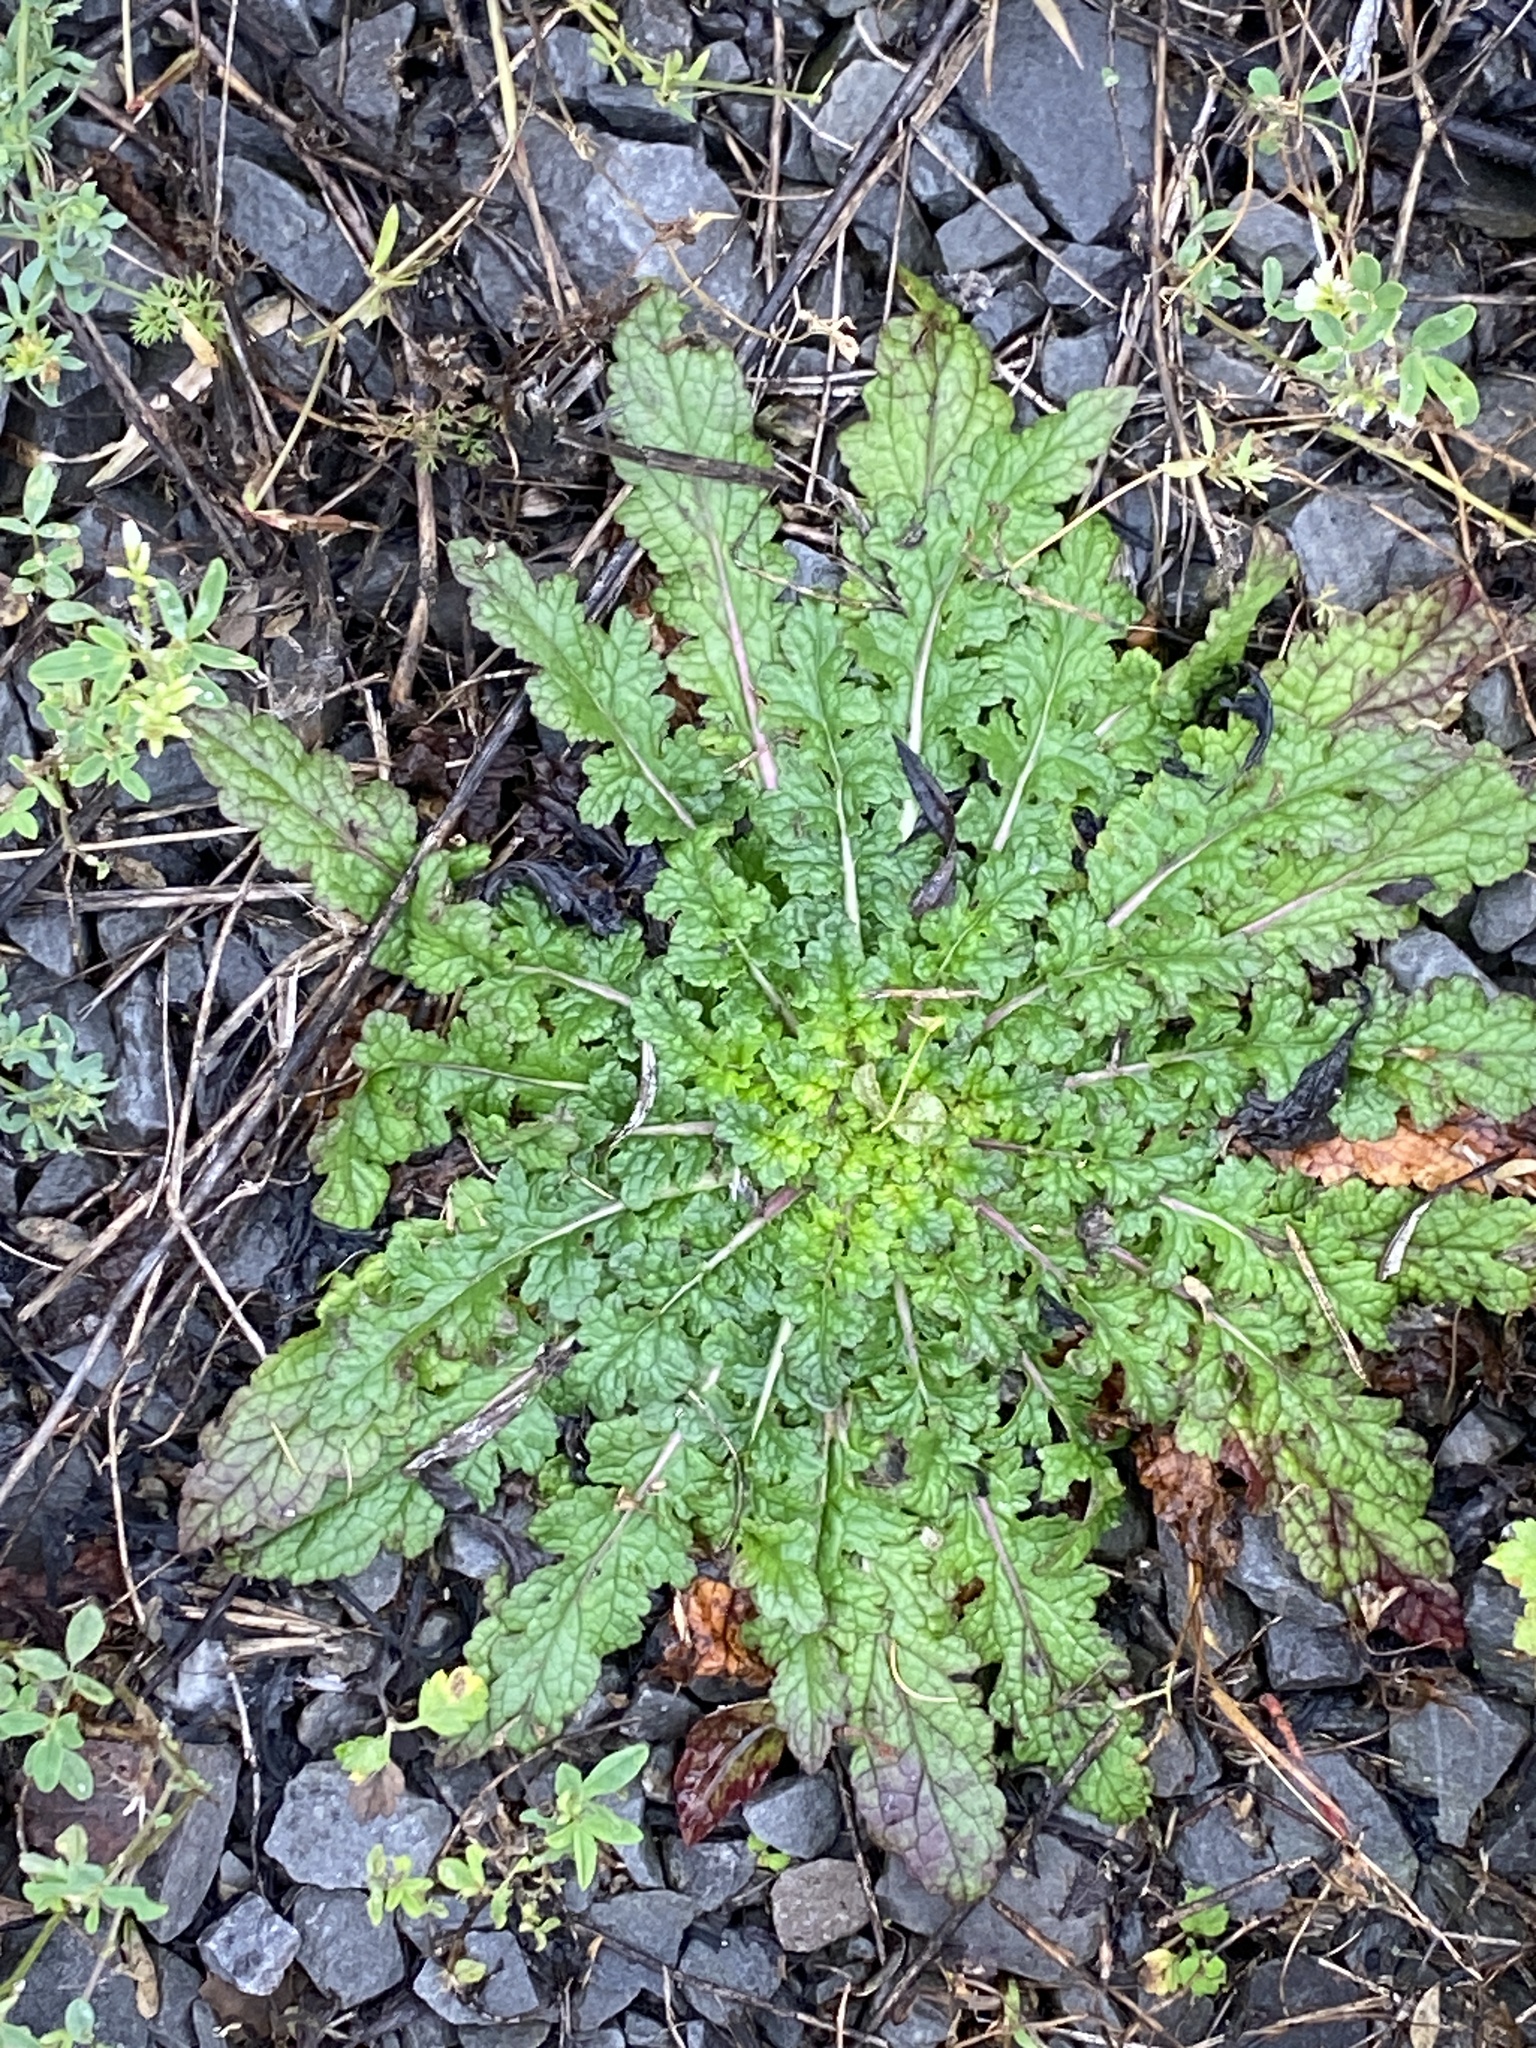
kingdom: Plantae
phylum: Tracheophyta
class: Magnoliopsida
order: Lamiales
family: Scrophulariaceae
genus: Verbascum
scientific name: Verbascum blattaria
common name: Moth mullein
